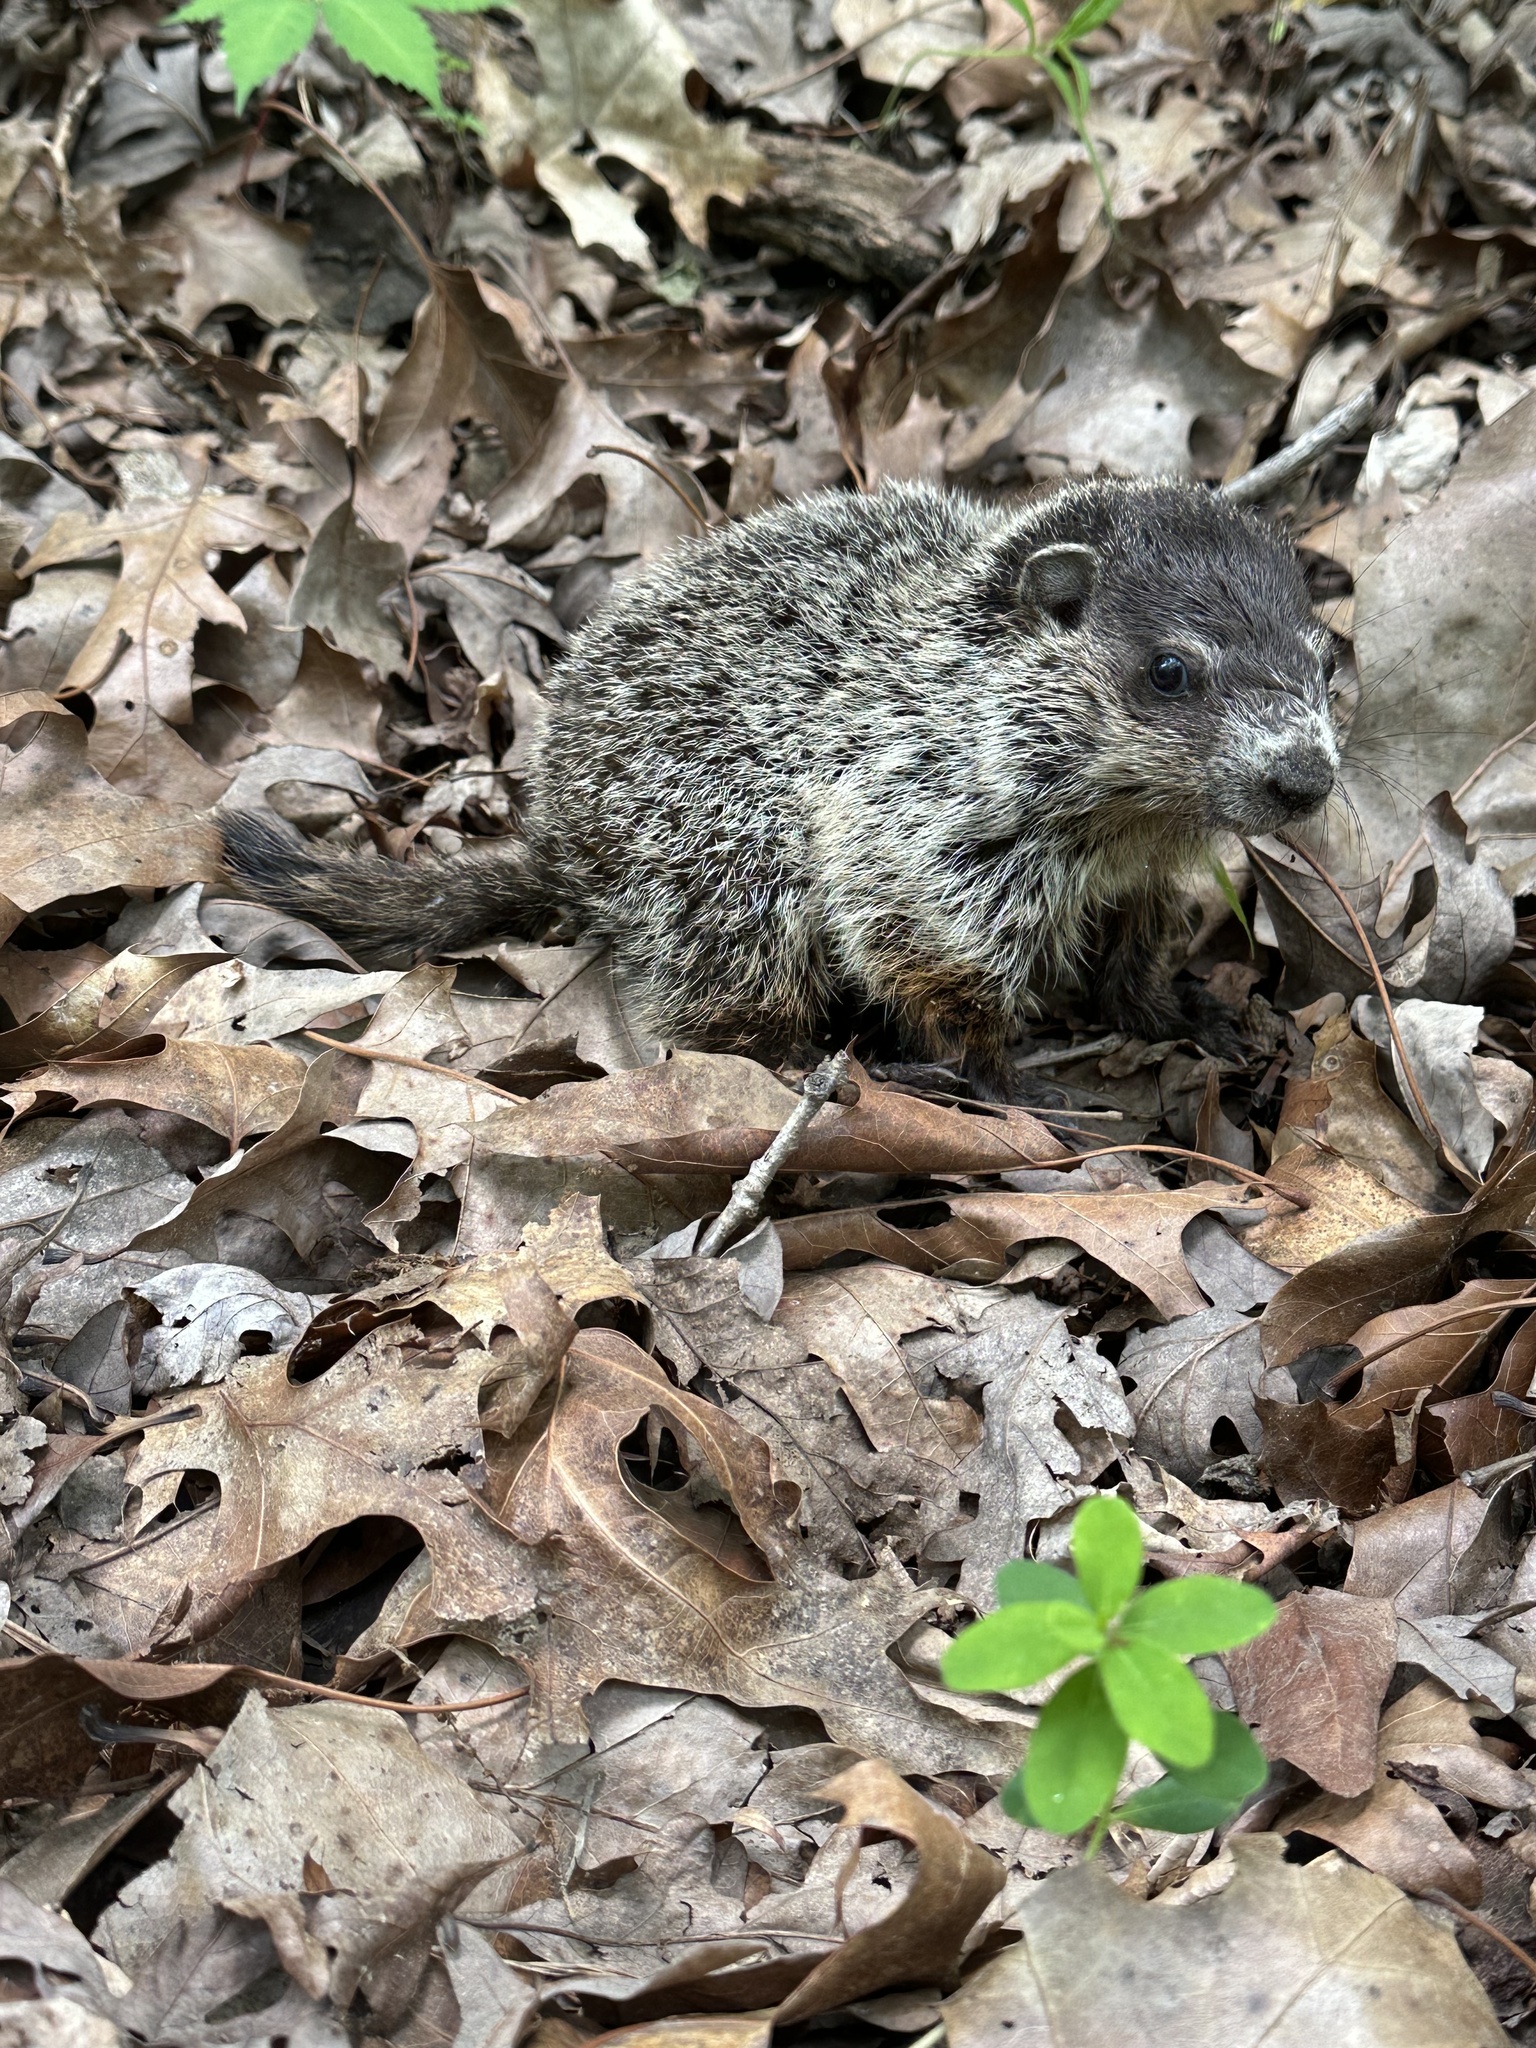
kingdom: Animalia
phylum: Chordata
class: Mammalia
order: Rodentia
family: Sciuridae
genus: Marmota
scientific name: Marmota monax
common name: Groundhog
